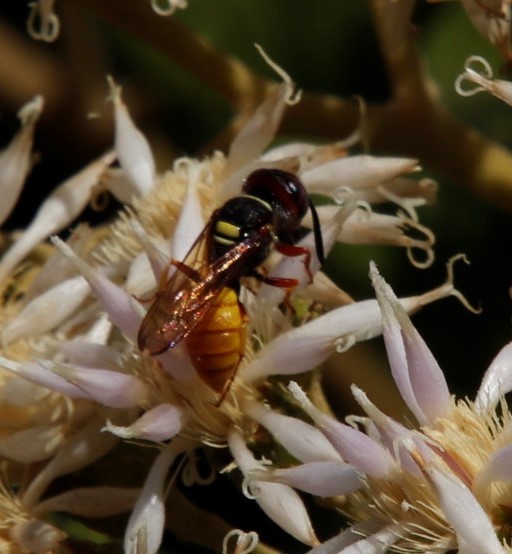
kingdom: Animalia
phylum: Arthropoda
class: Insecta
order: Hymenoptera
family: Crabronidae
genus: Philanthus
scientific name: Philanthus triangulum
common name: Bee wolf
